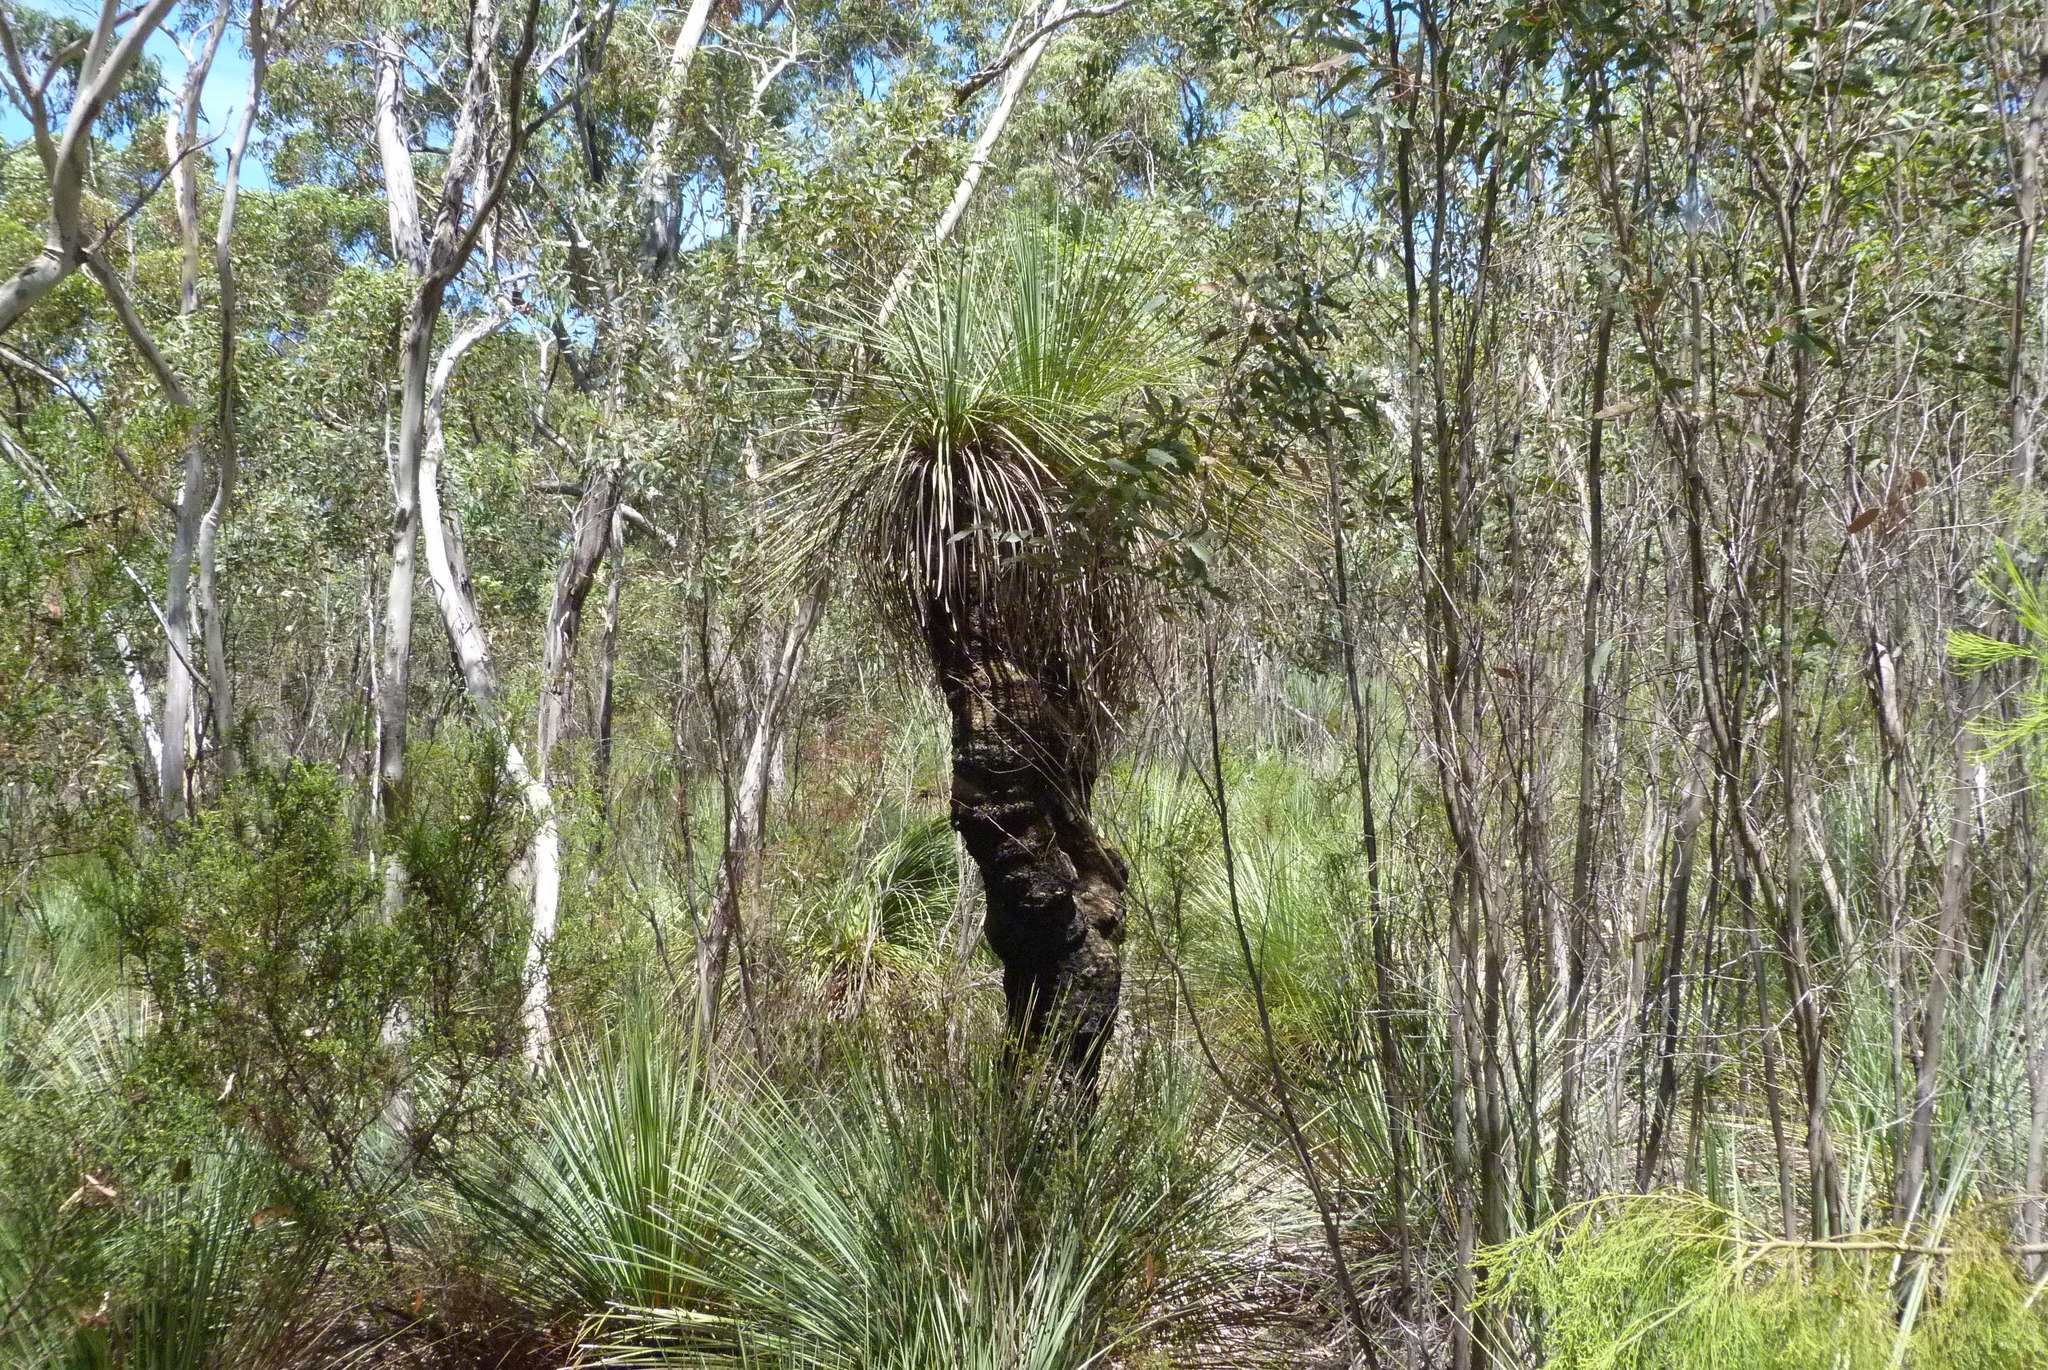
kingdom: Plantae
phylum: Tracheophyta
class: Liliopsida
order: Asparagales
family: Asphodelaceae
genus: Xanthorrhoea
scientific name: Xanthorrhoea semiplana
